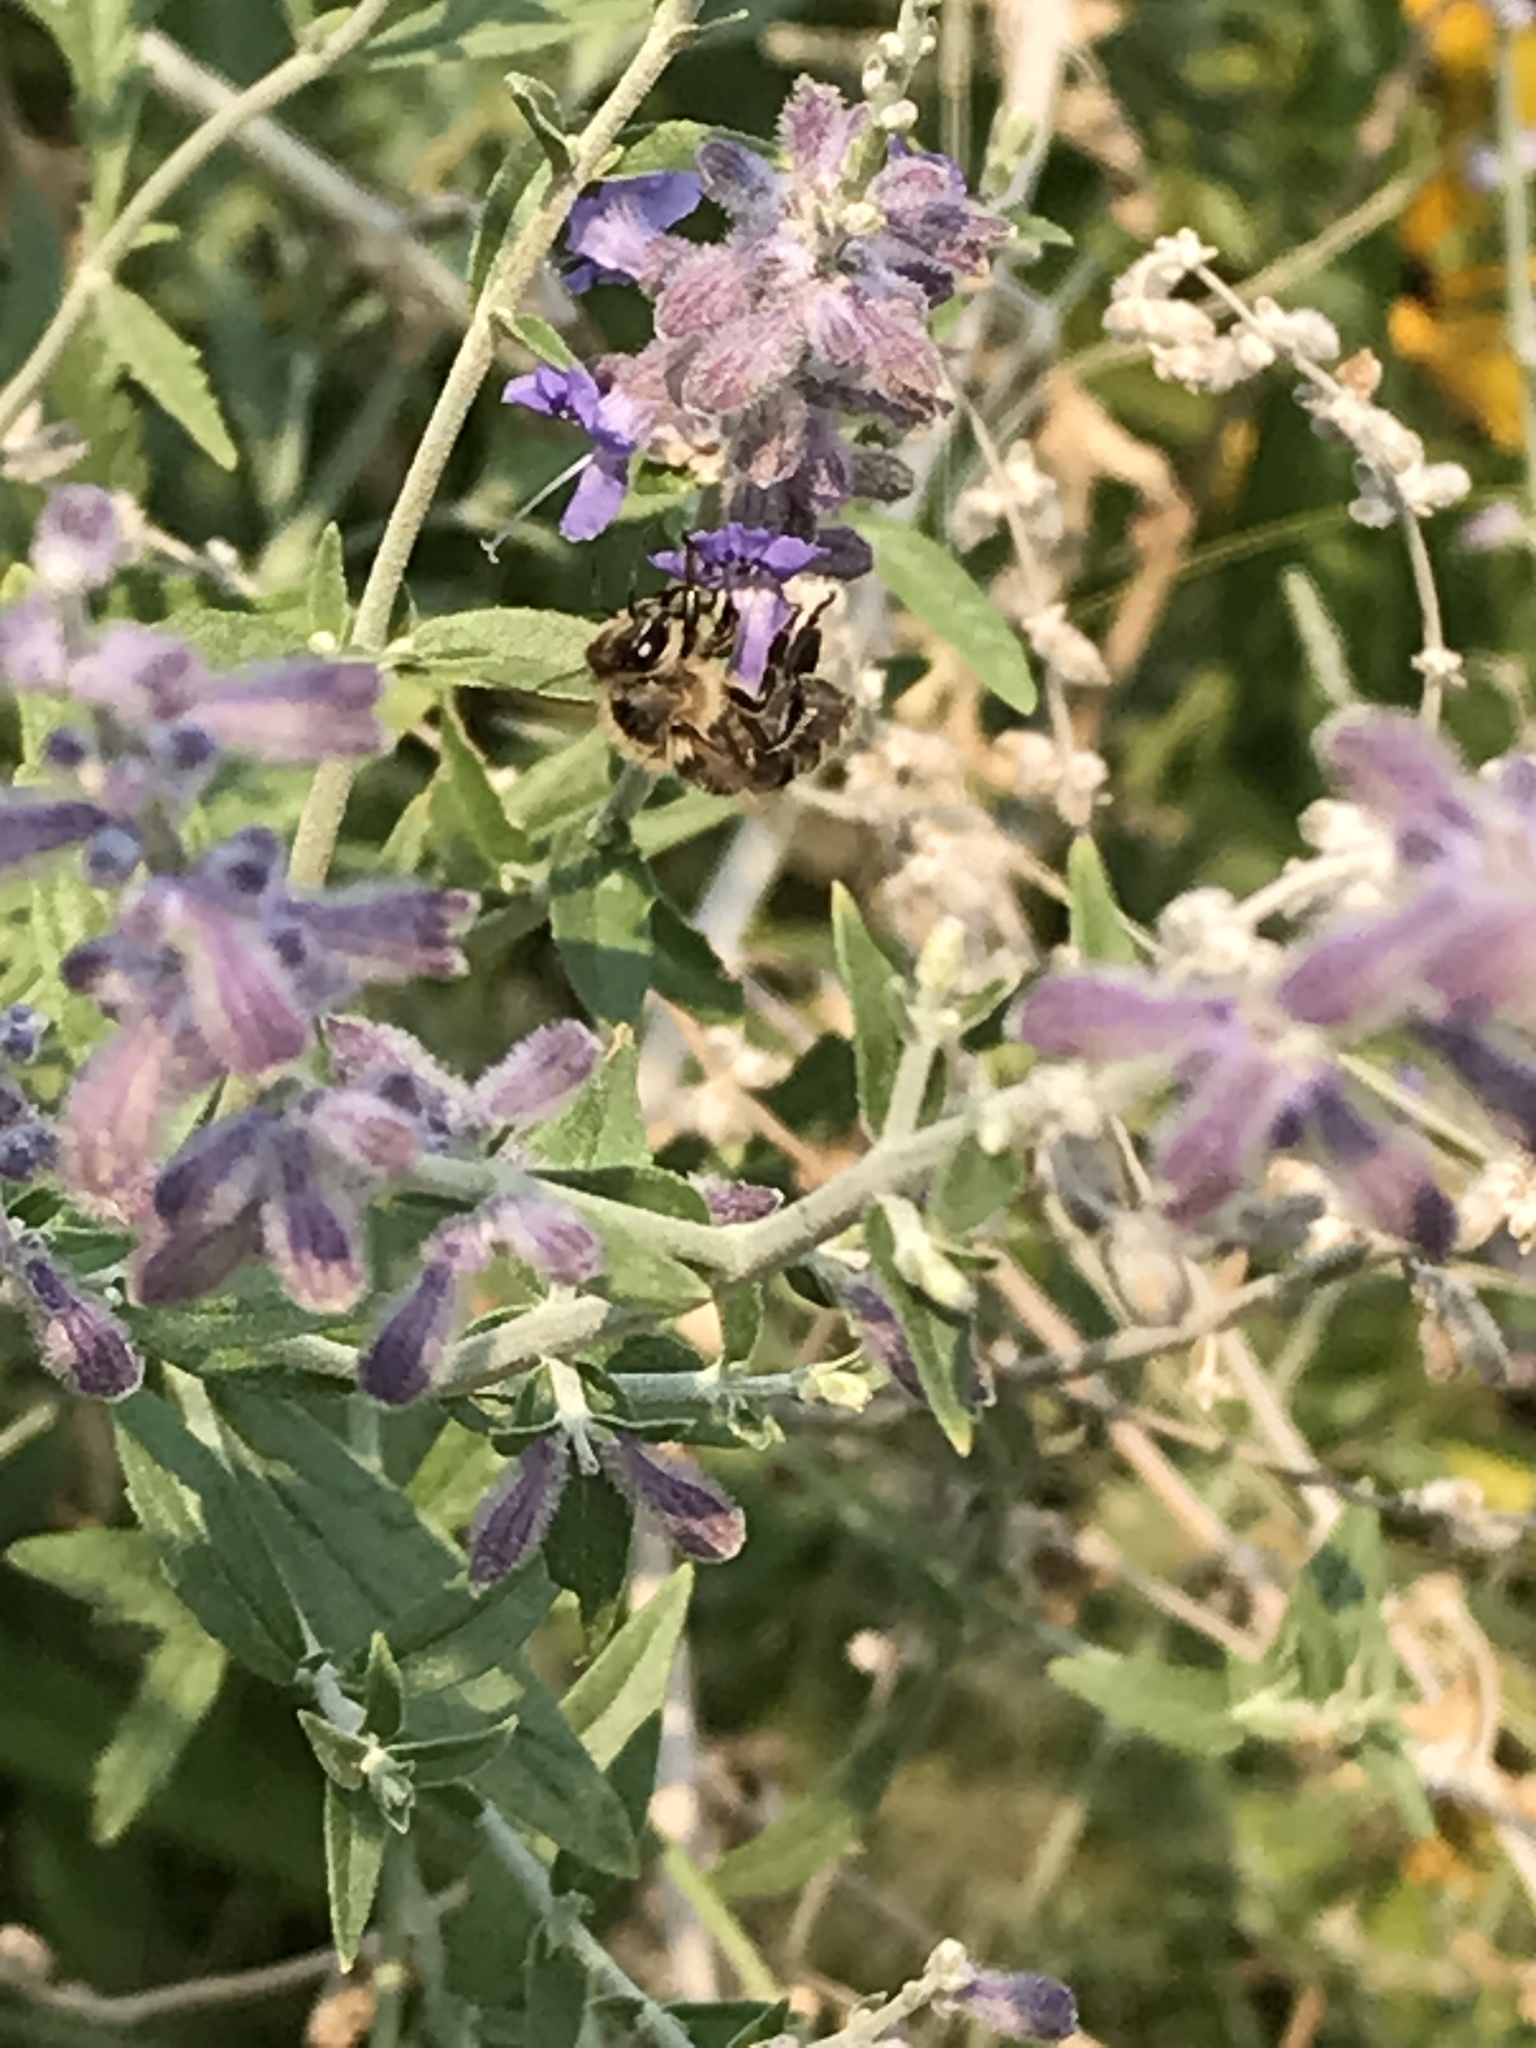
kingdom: Animalia
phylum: Arthropoda
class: Insecta
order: Hymenoptera
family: Apidae
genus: Apis
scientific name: Apis mellifera
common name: Honey bee
